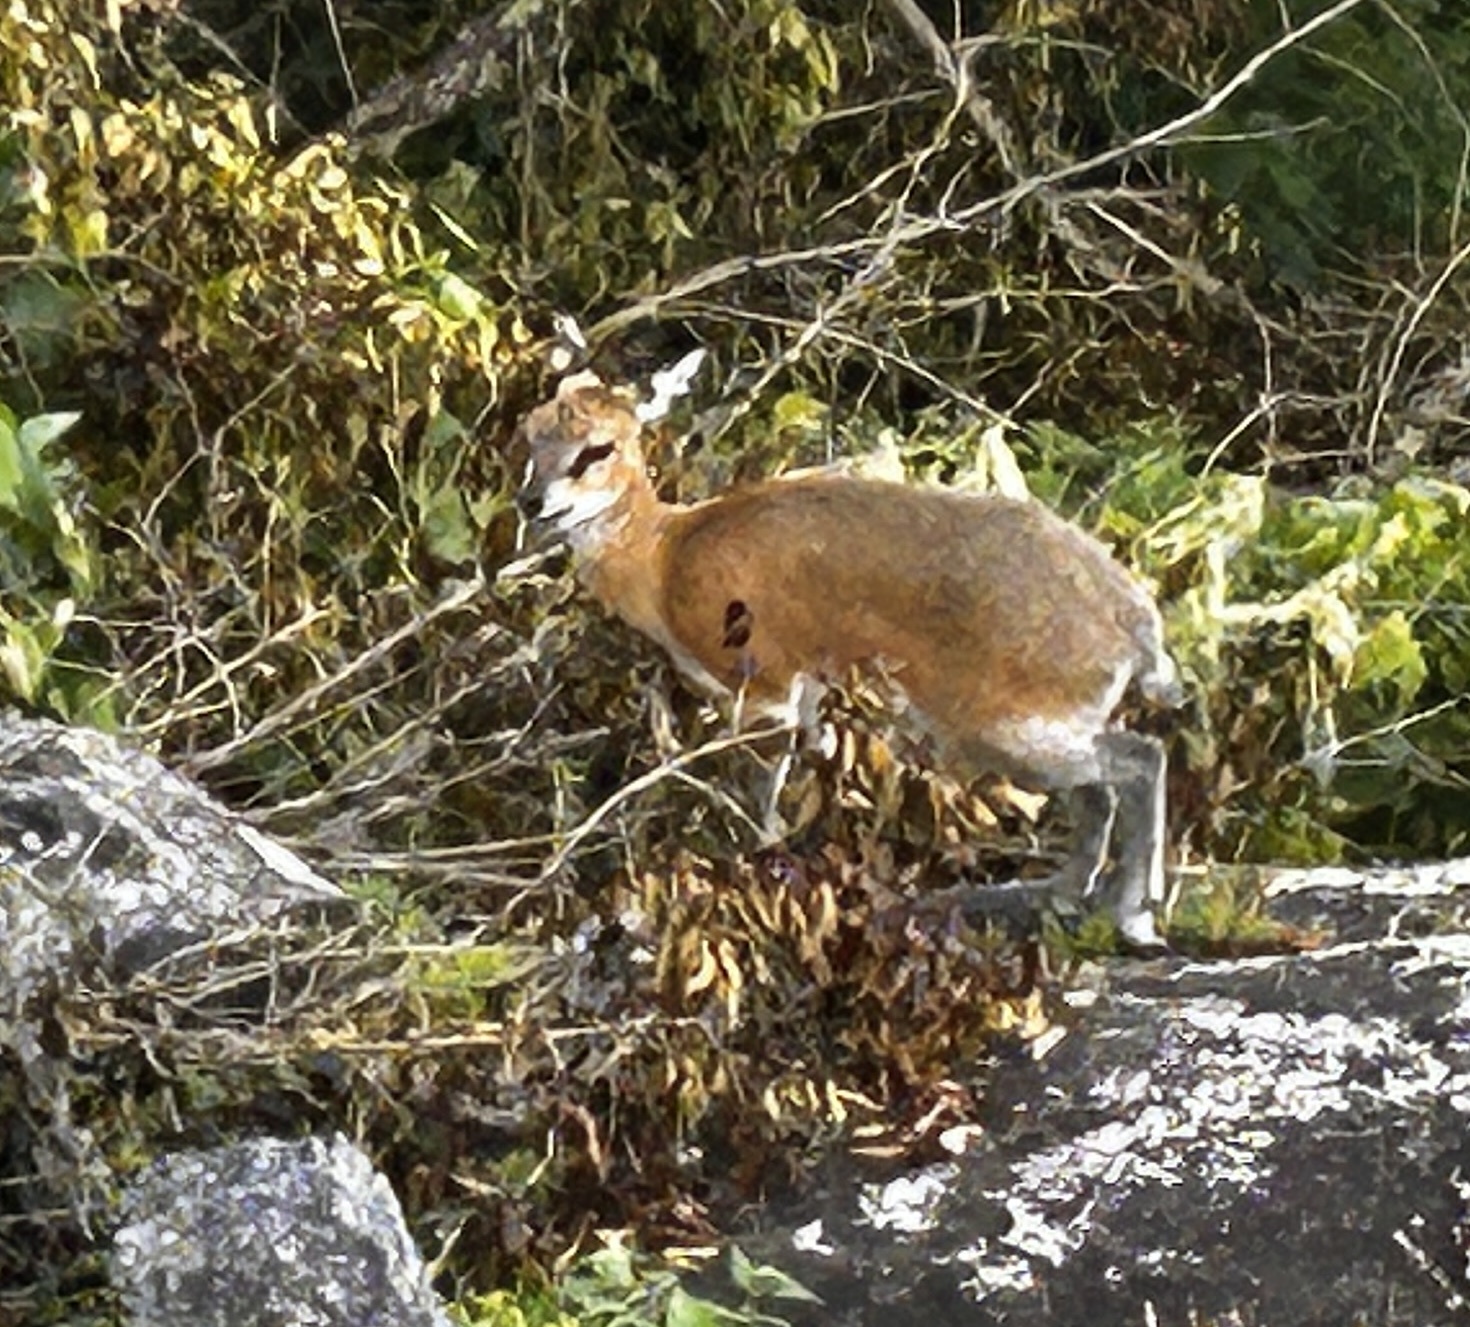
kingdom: Animalia
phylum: Chordata
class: Mammalia
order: Artiodactyla
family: Bovidae
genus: Oreotragus
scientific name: Oreotragus oreotragus
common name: Klipspringer
